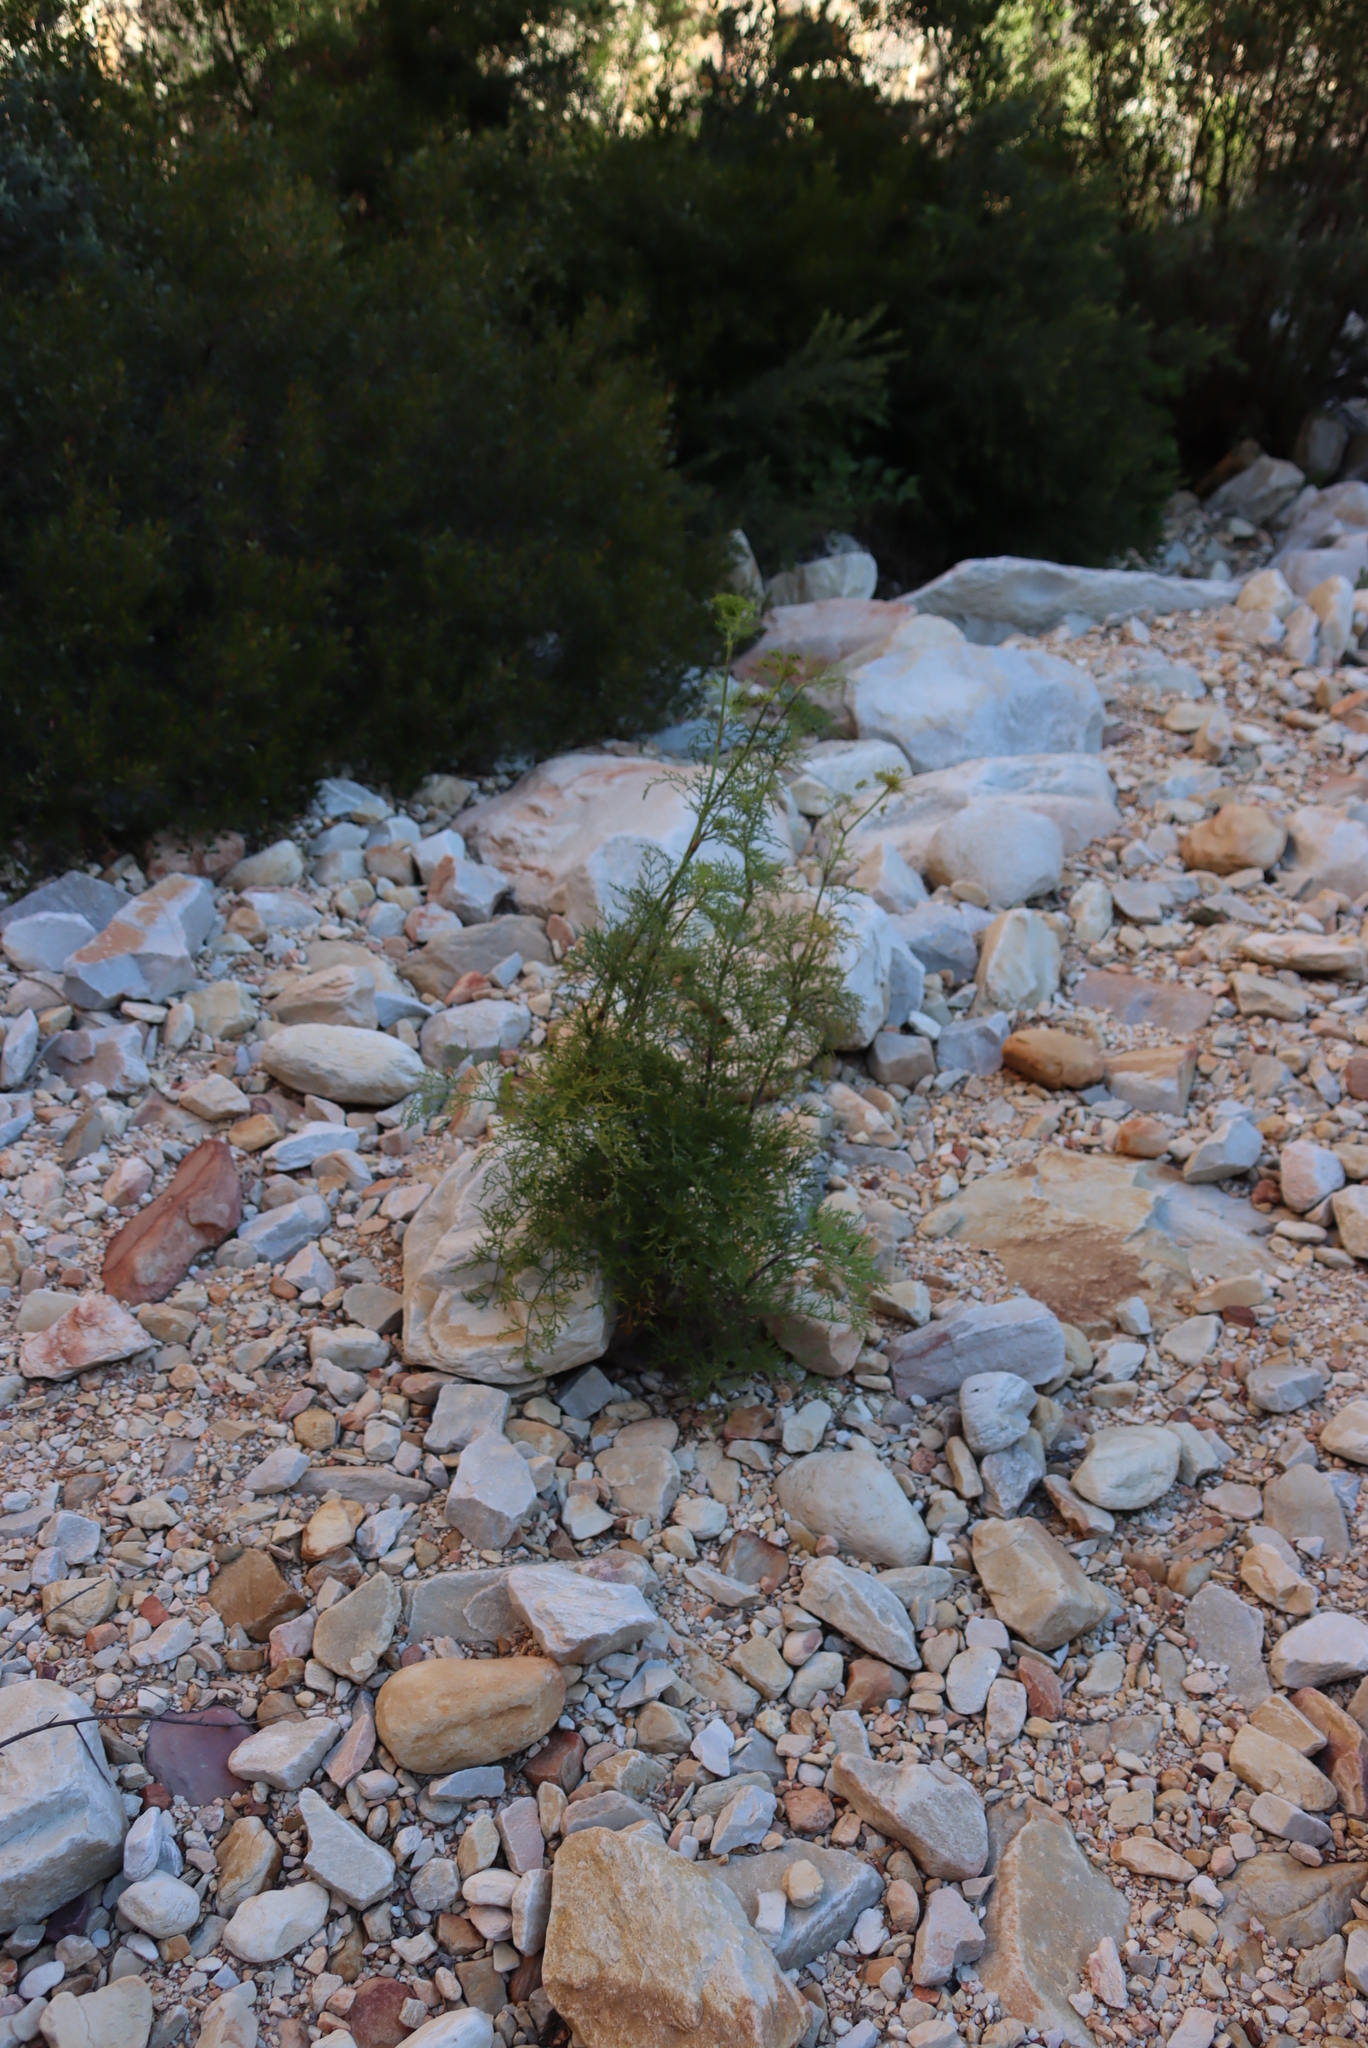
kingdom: Plantae
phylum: Tracheophyta
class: Magnoliopsida
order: Apiales
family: Apiaceae
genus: Notobubon
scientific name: Notobubon tenuifolium
